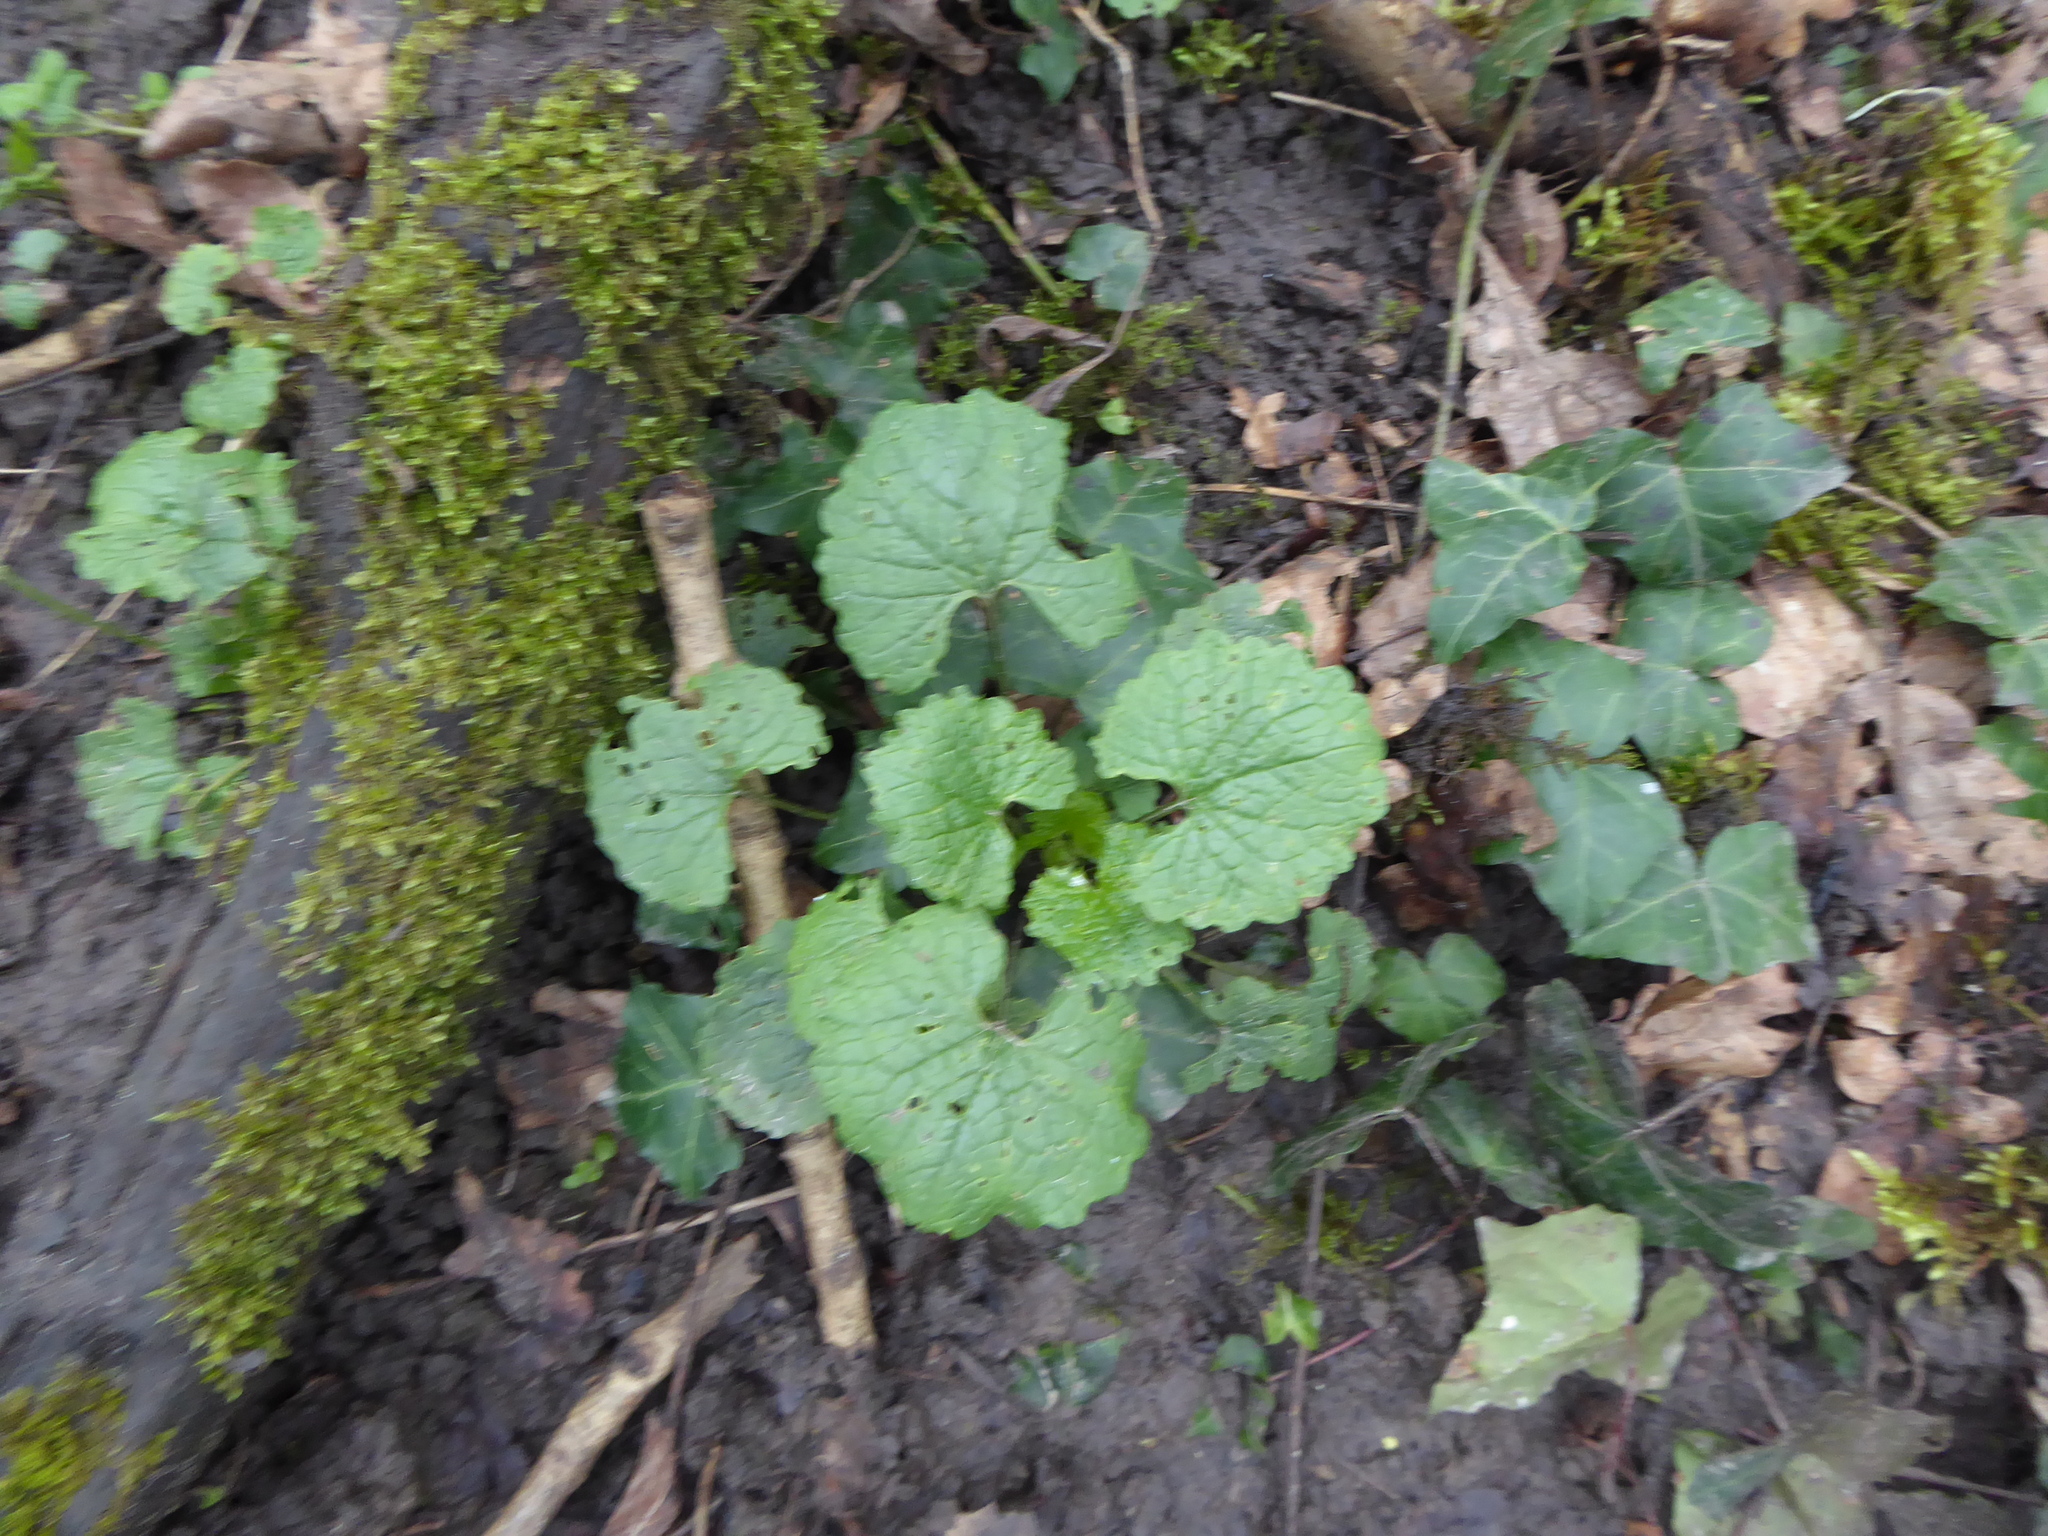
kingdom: Plantae
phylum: Tracheophyta
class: Magnoliopsida
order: Brassicales
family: Brassicaceae
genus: Alliaria
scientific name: Alliaria petiolata
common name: Garlic mustard
